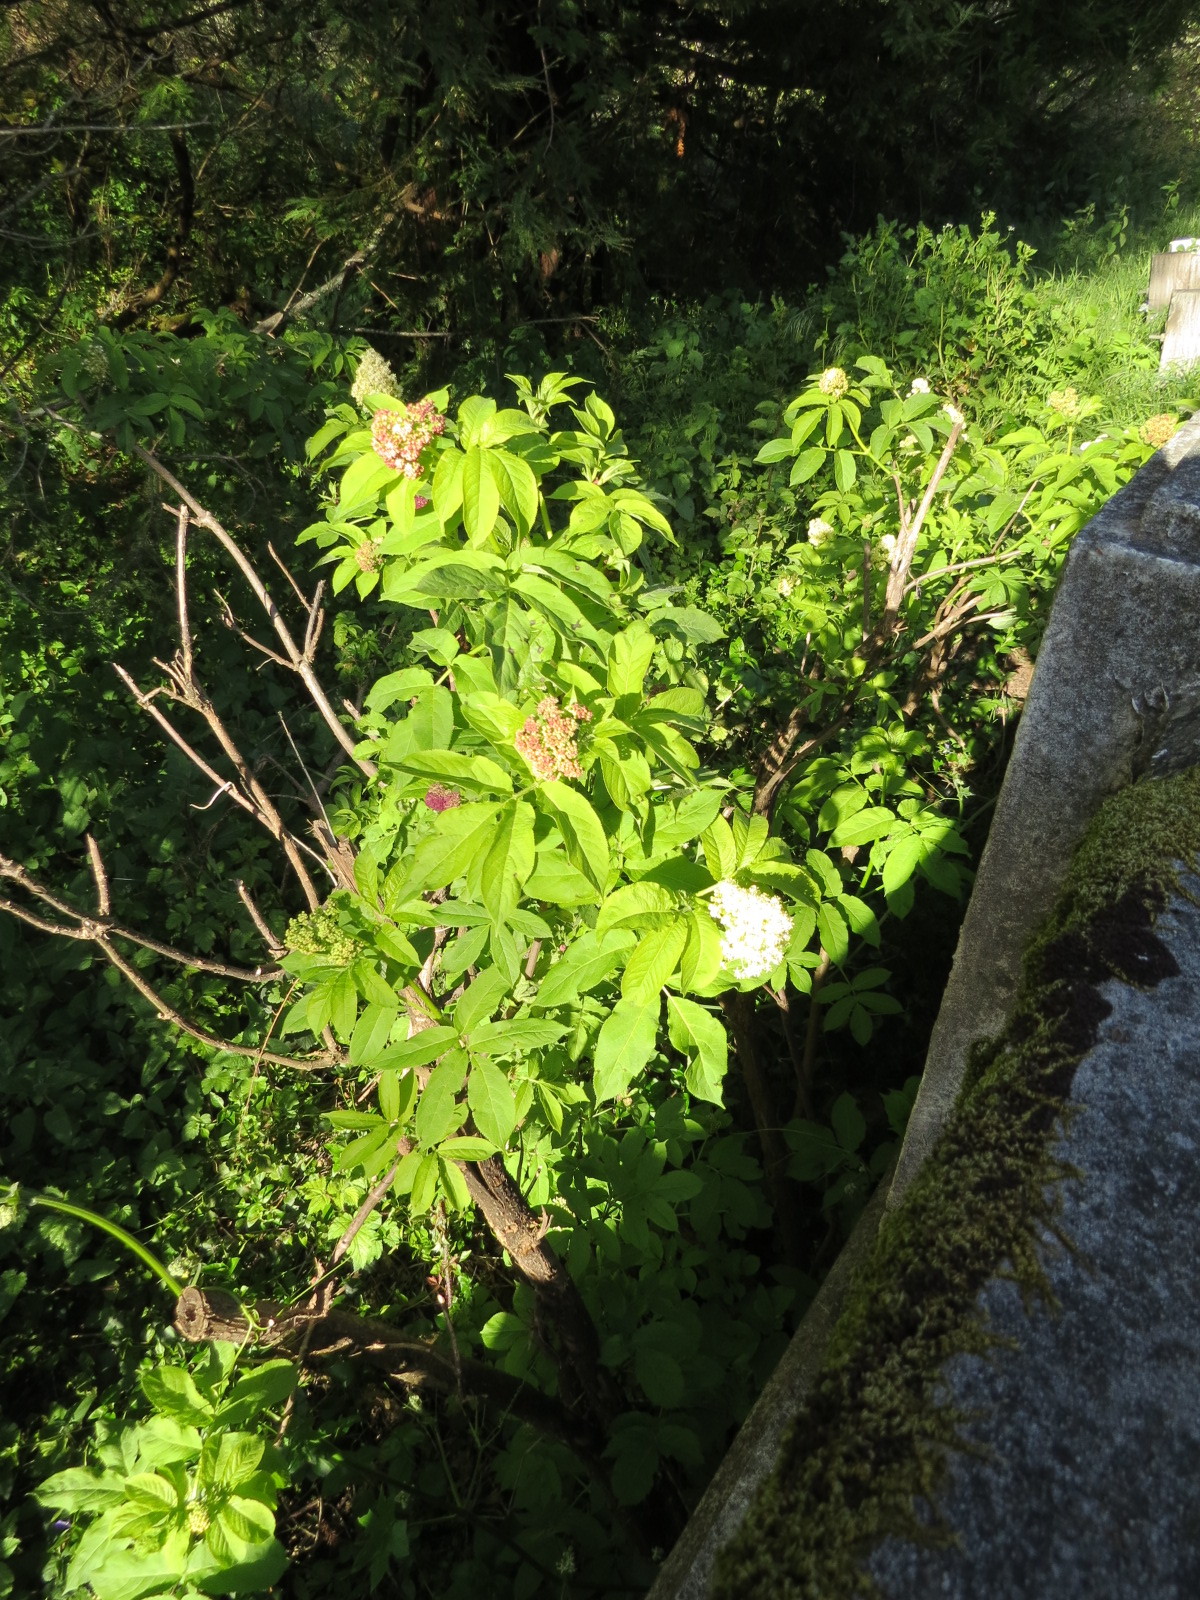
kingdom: Plantae
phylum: Tracheophyta
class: Magnoliopsida
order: Dipsacales
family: Viburnaceae
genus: Sambucus
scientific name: Sambucus racemosa
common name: Red-berried elder
